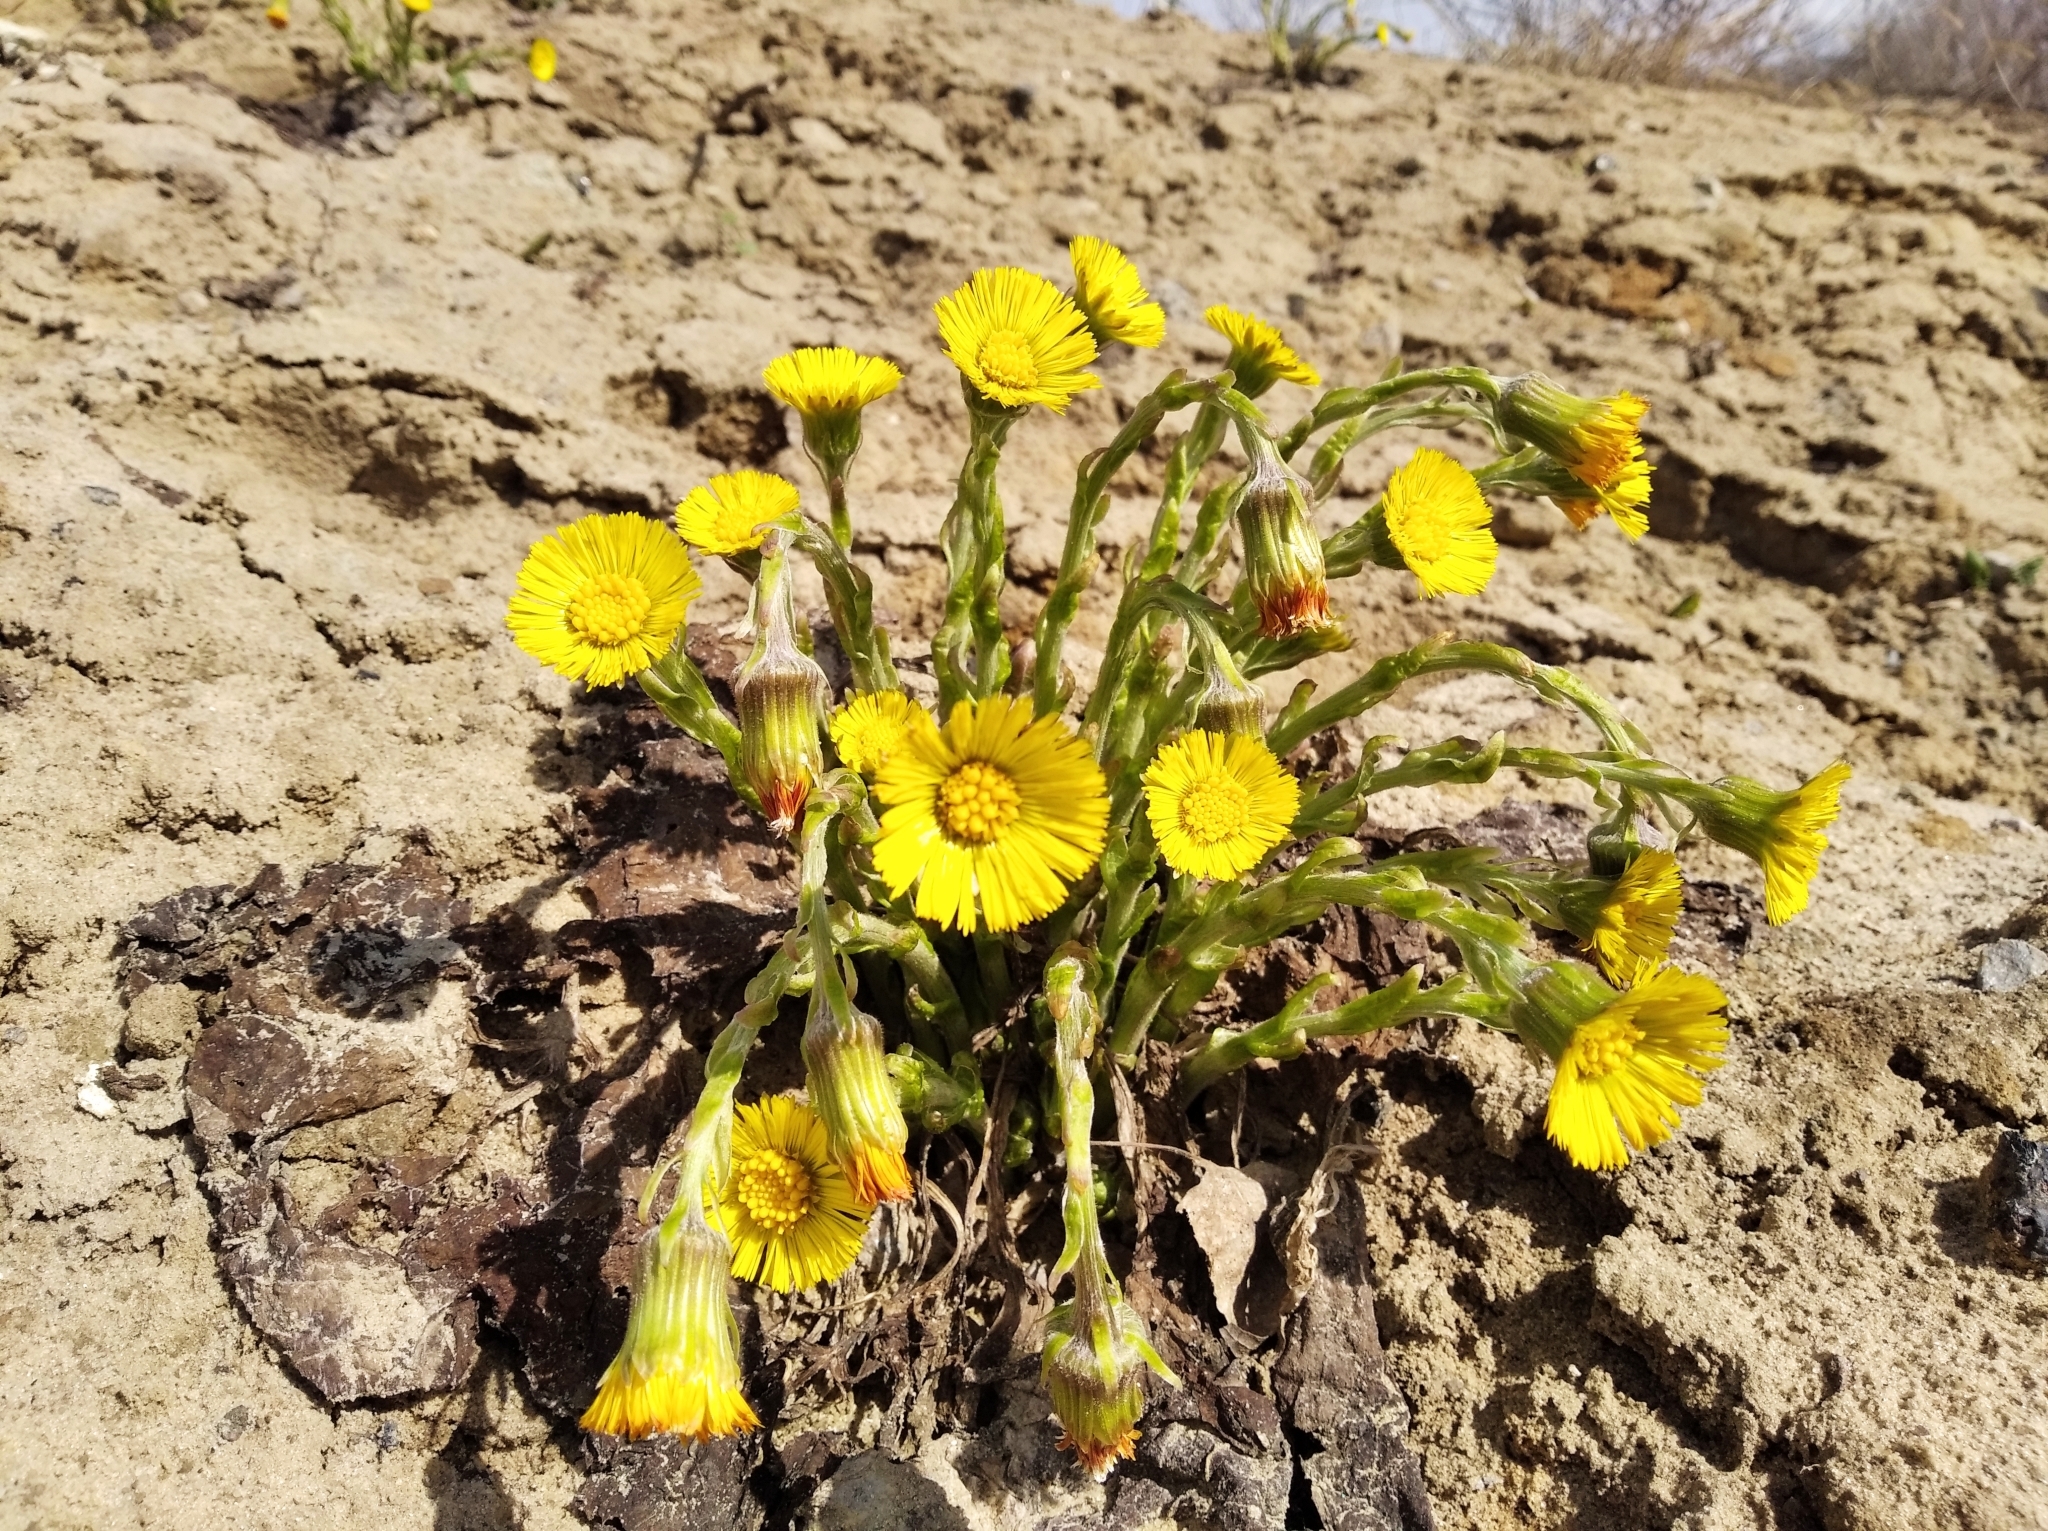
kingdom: Plantae
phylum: Tracheophyta
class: Magnoliopsida
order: Asterales
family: Asteraceae
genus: Tussilago
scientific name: Tussilago farfara
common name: Coltsfoot
